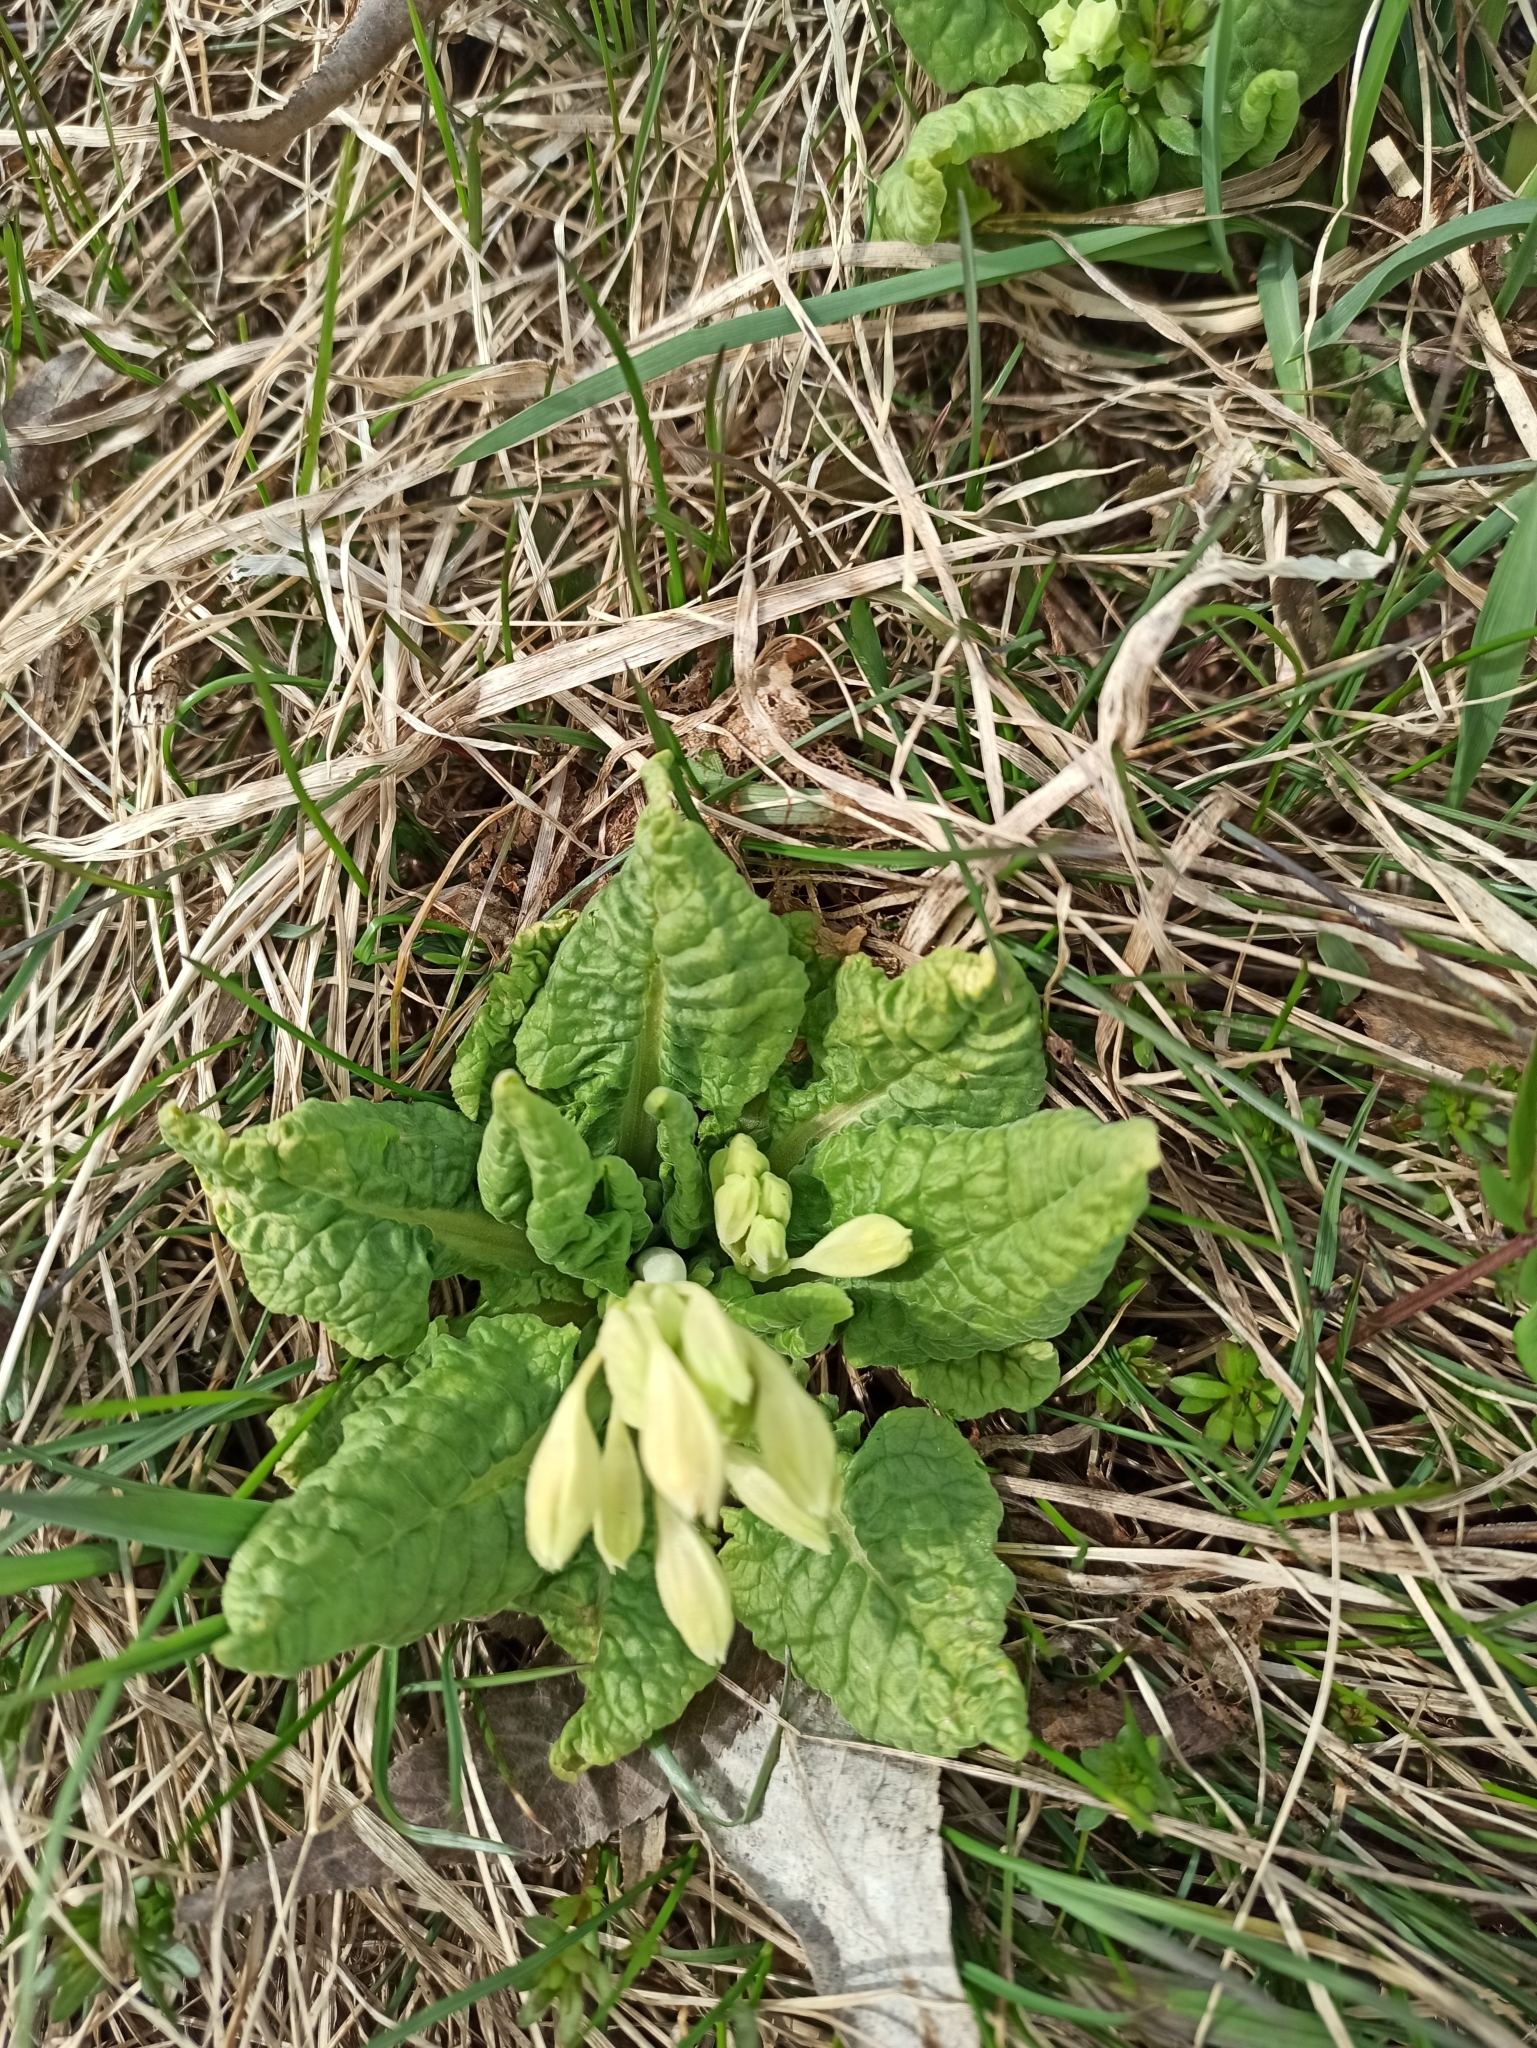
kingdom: Plantae
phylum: Tracheophyta
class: Magnoliopsida
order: Ericales
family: Primulaceae
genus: Primula
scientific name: Primula veris
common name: Cowslip
